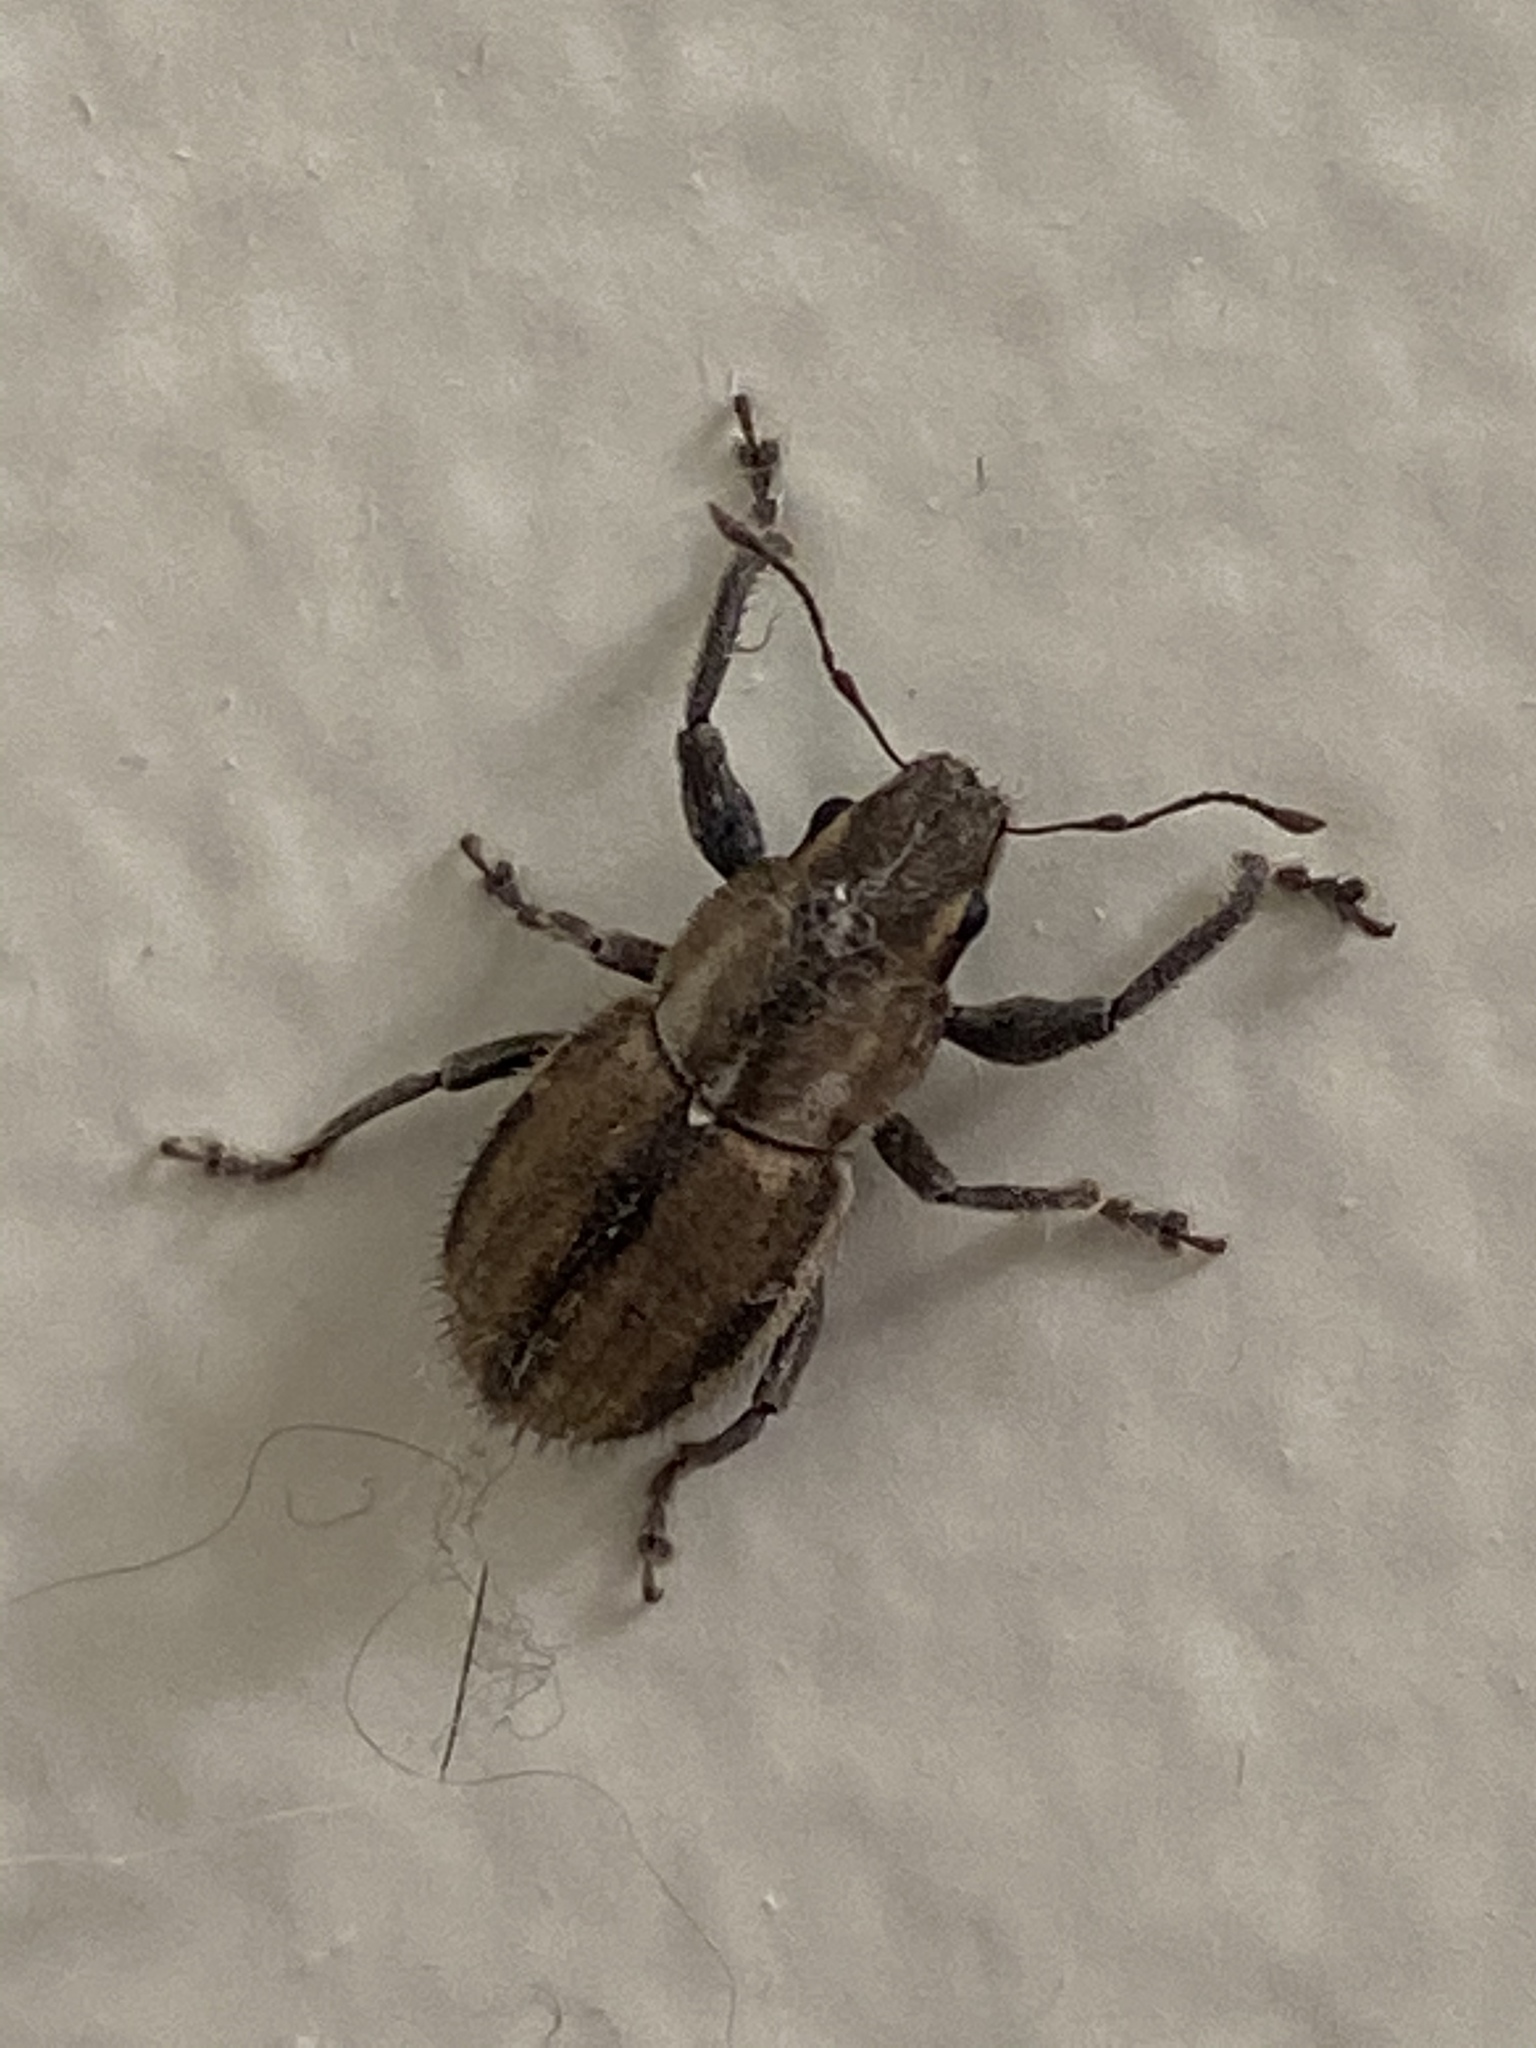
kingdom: Animalia
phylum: Arthropoda
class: Insecta
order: Coleoptera
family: Curculionidae
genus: Naupactus
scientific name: Naupactus peregrinus
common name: Whitefringed beetle
